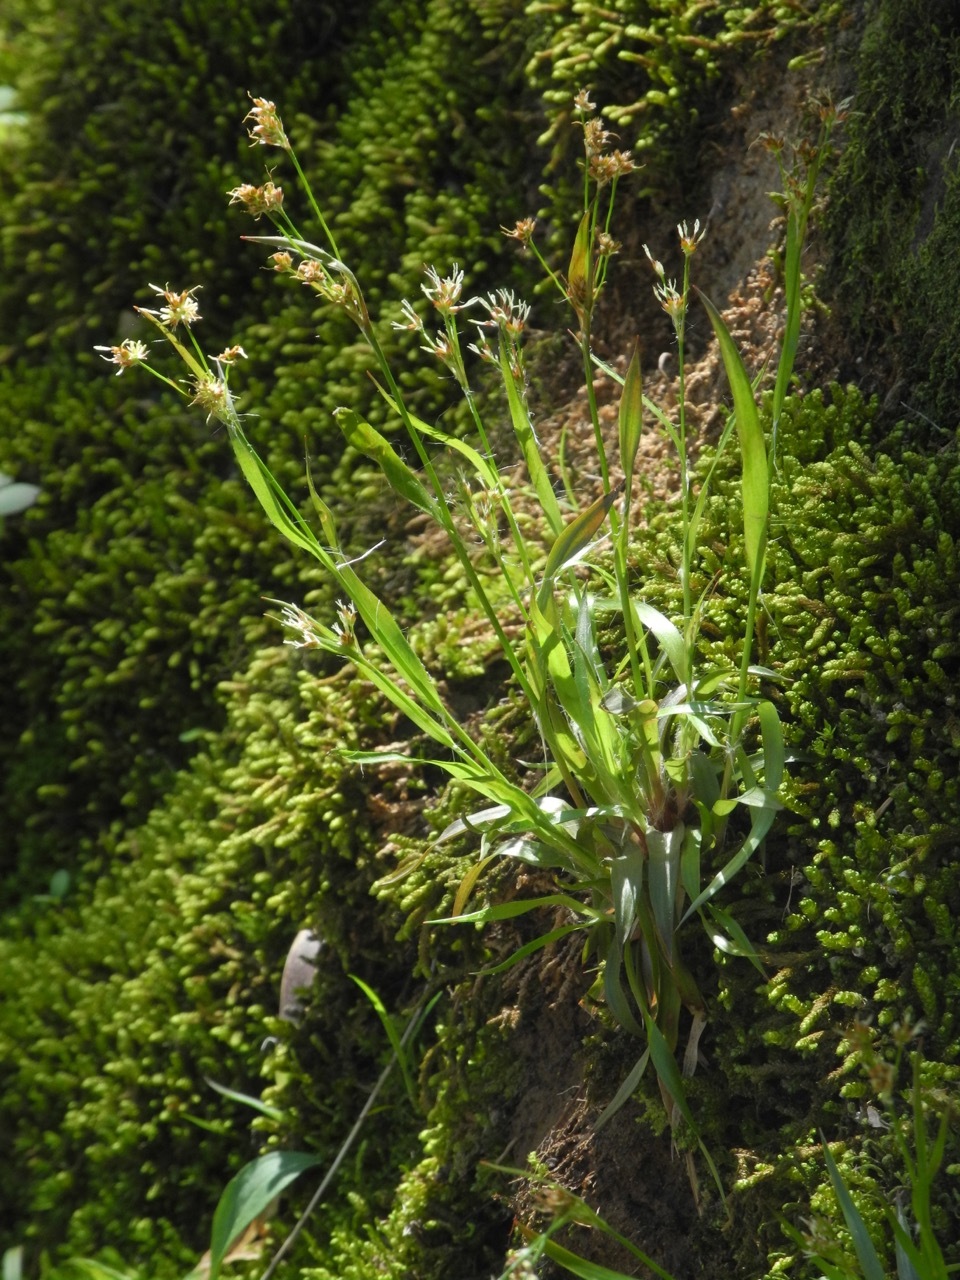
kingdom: Plantae
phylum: Tracheophyta
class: Liliopsida
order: Poales
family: Juncaceae
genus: Luzula
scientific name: Luzula echinata
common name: Hedgehog woodrush
